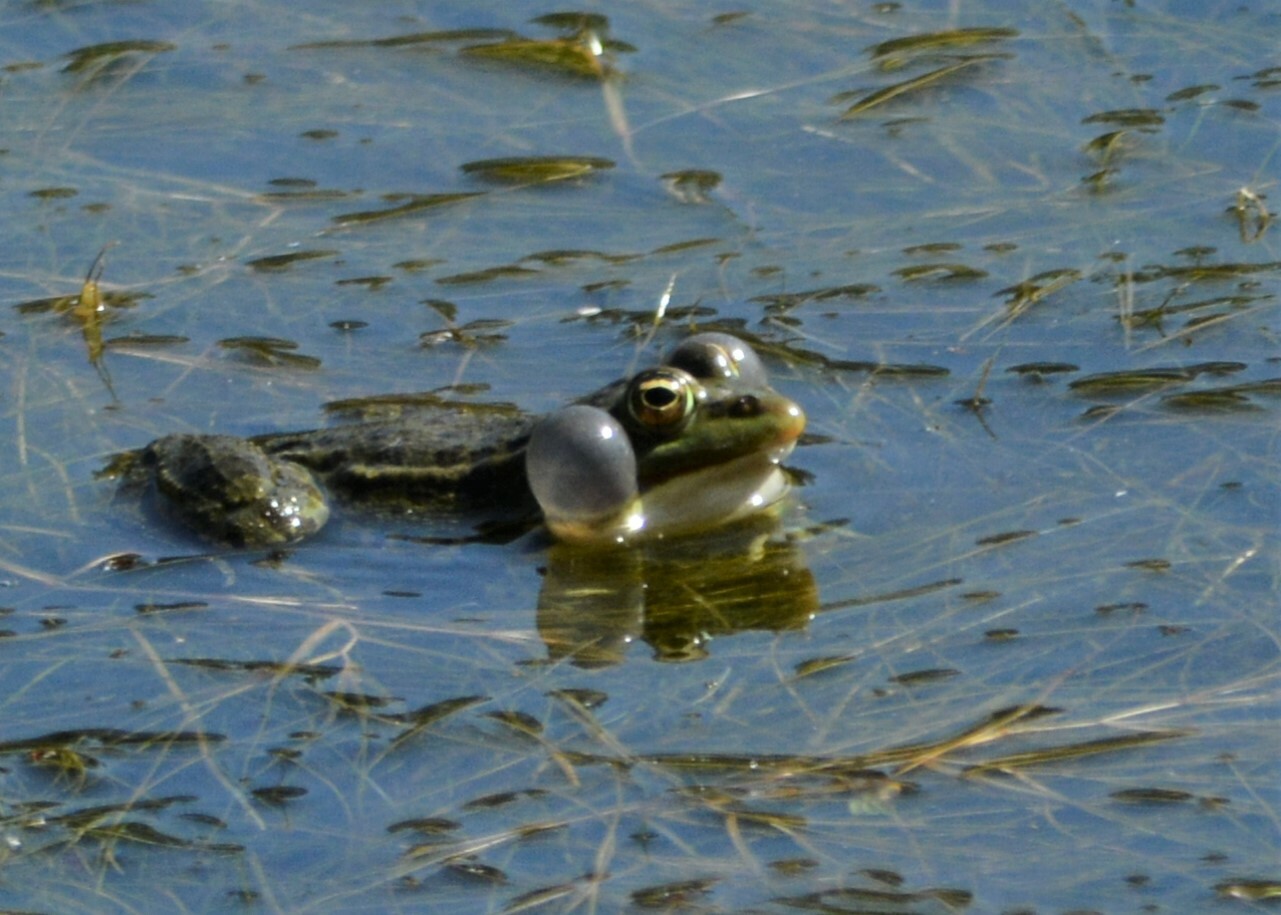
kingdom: Animalia
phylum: Chordata
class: Amphibia
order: Anura
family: Ranidae
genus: Pelophylax
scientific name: Pelophylax saharicus
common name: Sahara frog
